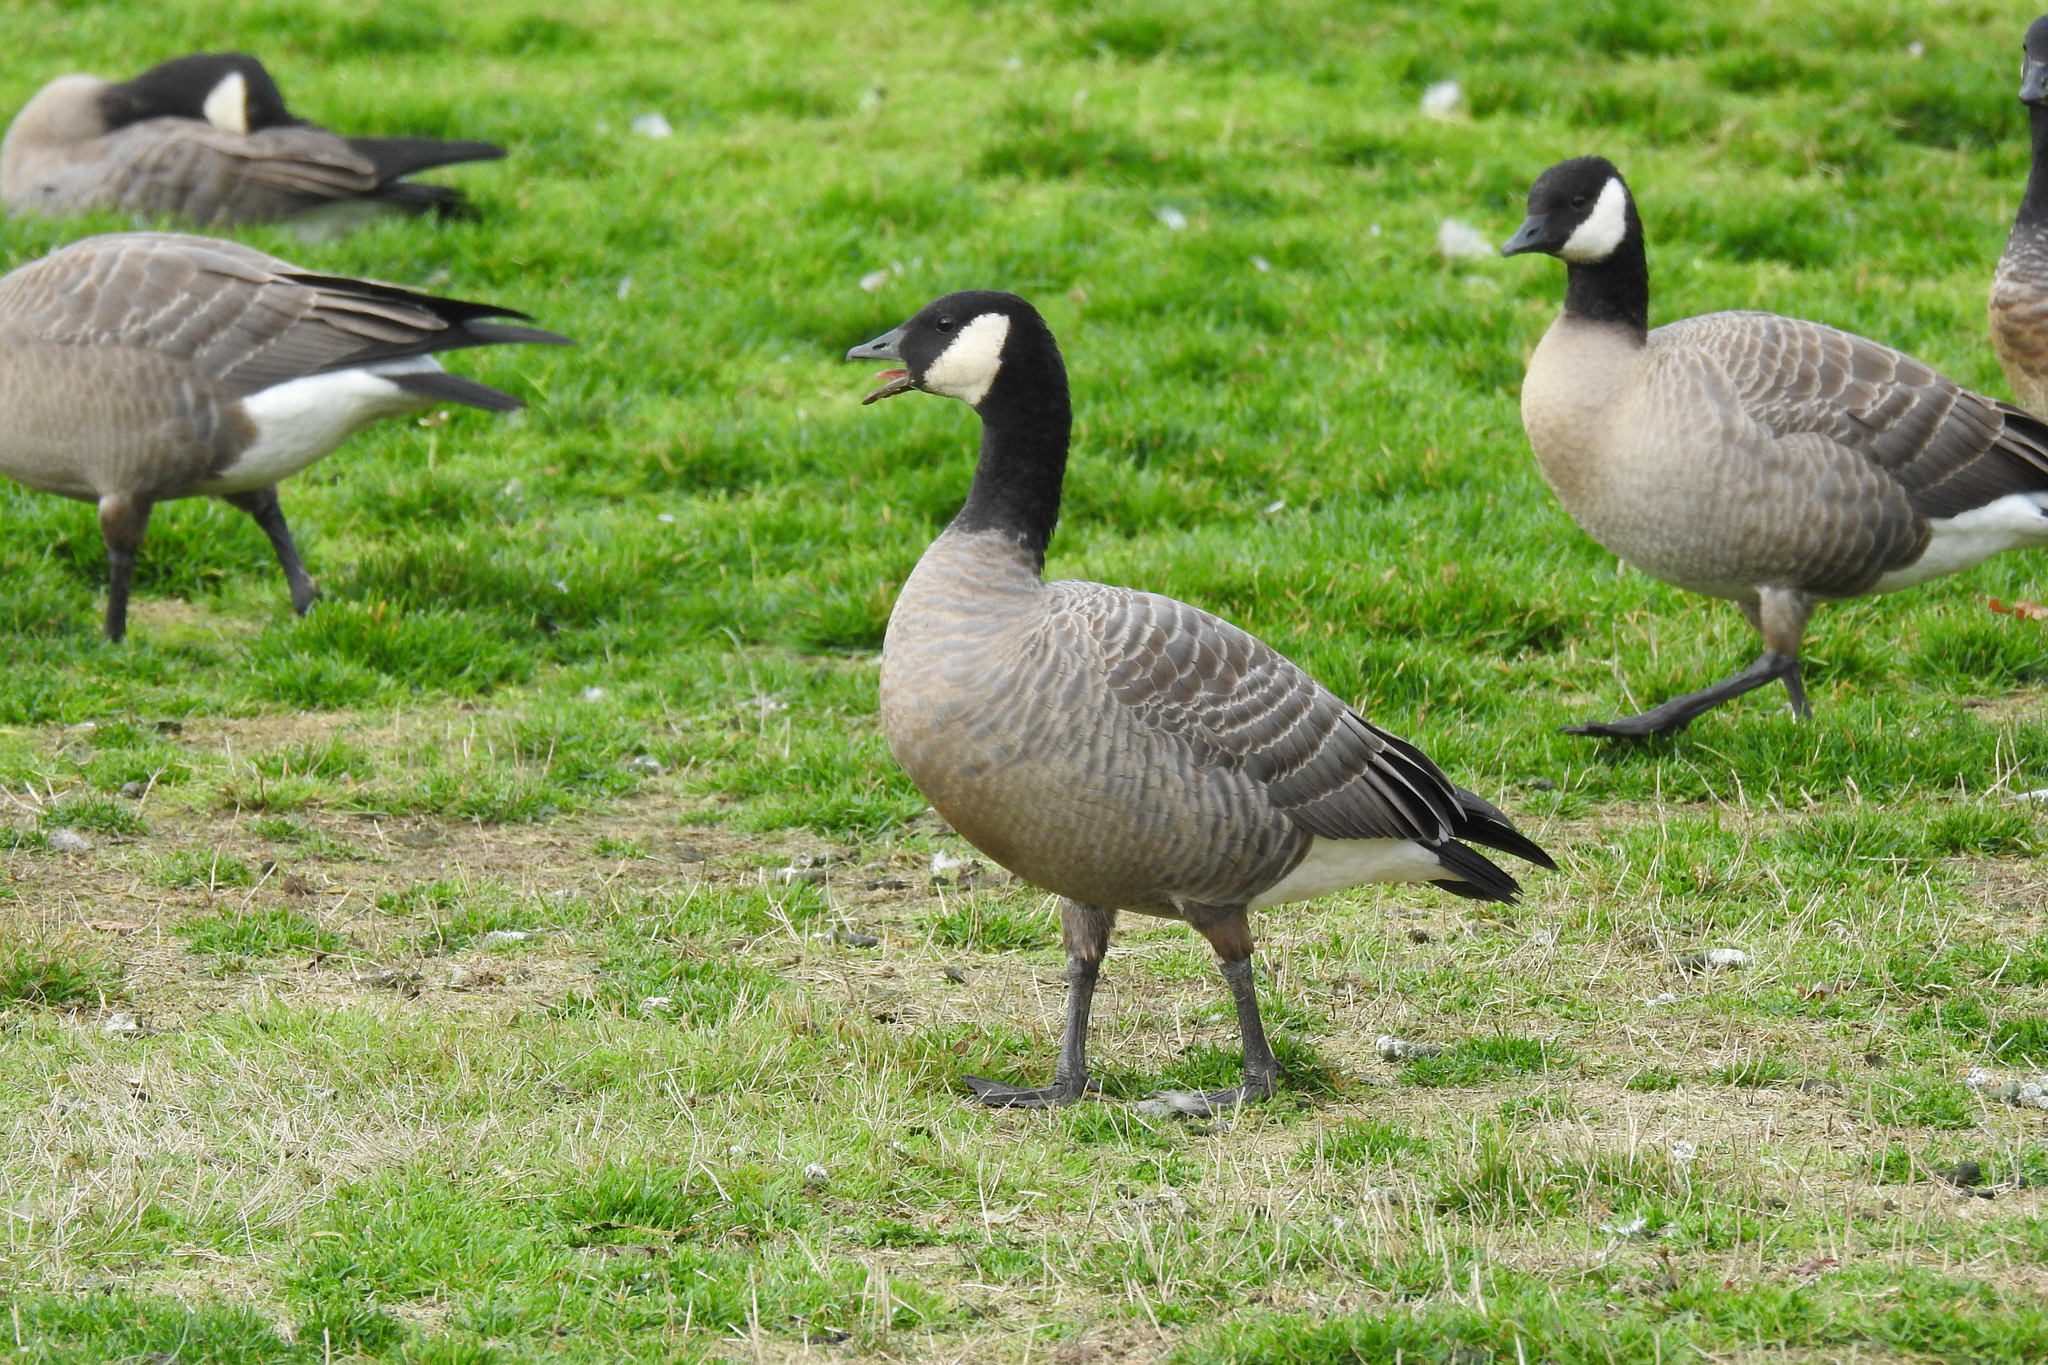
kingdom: Animalia
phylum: Chordata
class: Aves
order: Anseriformes
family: Anatidae
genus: Branta
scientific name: Branta hutchinsii
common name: Cackling goose
